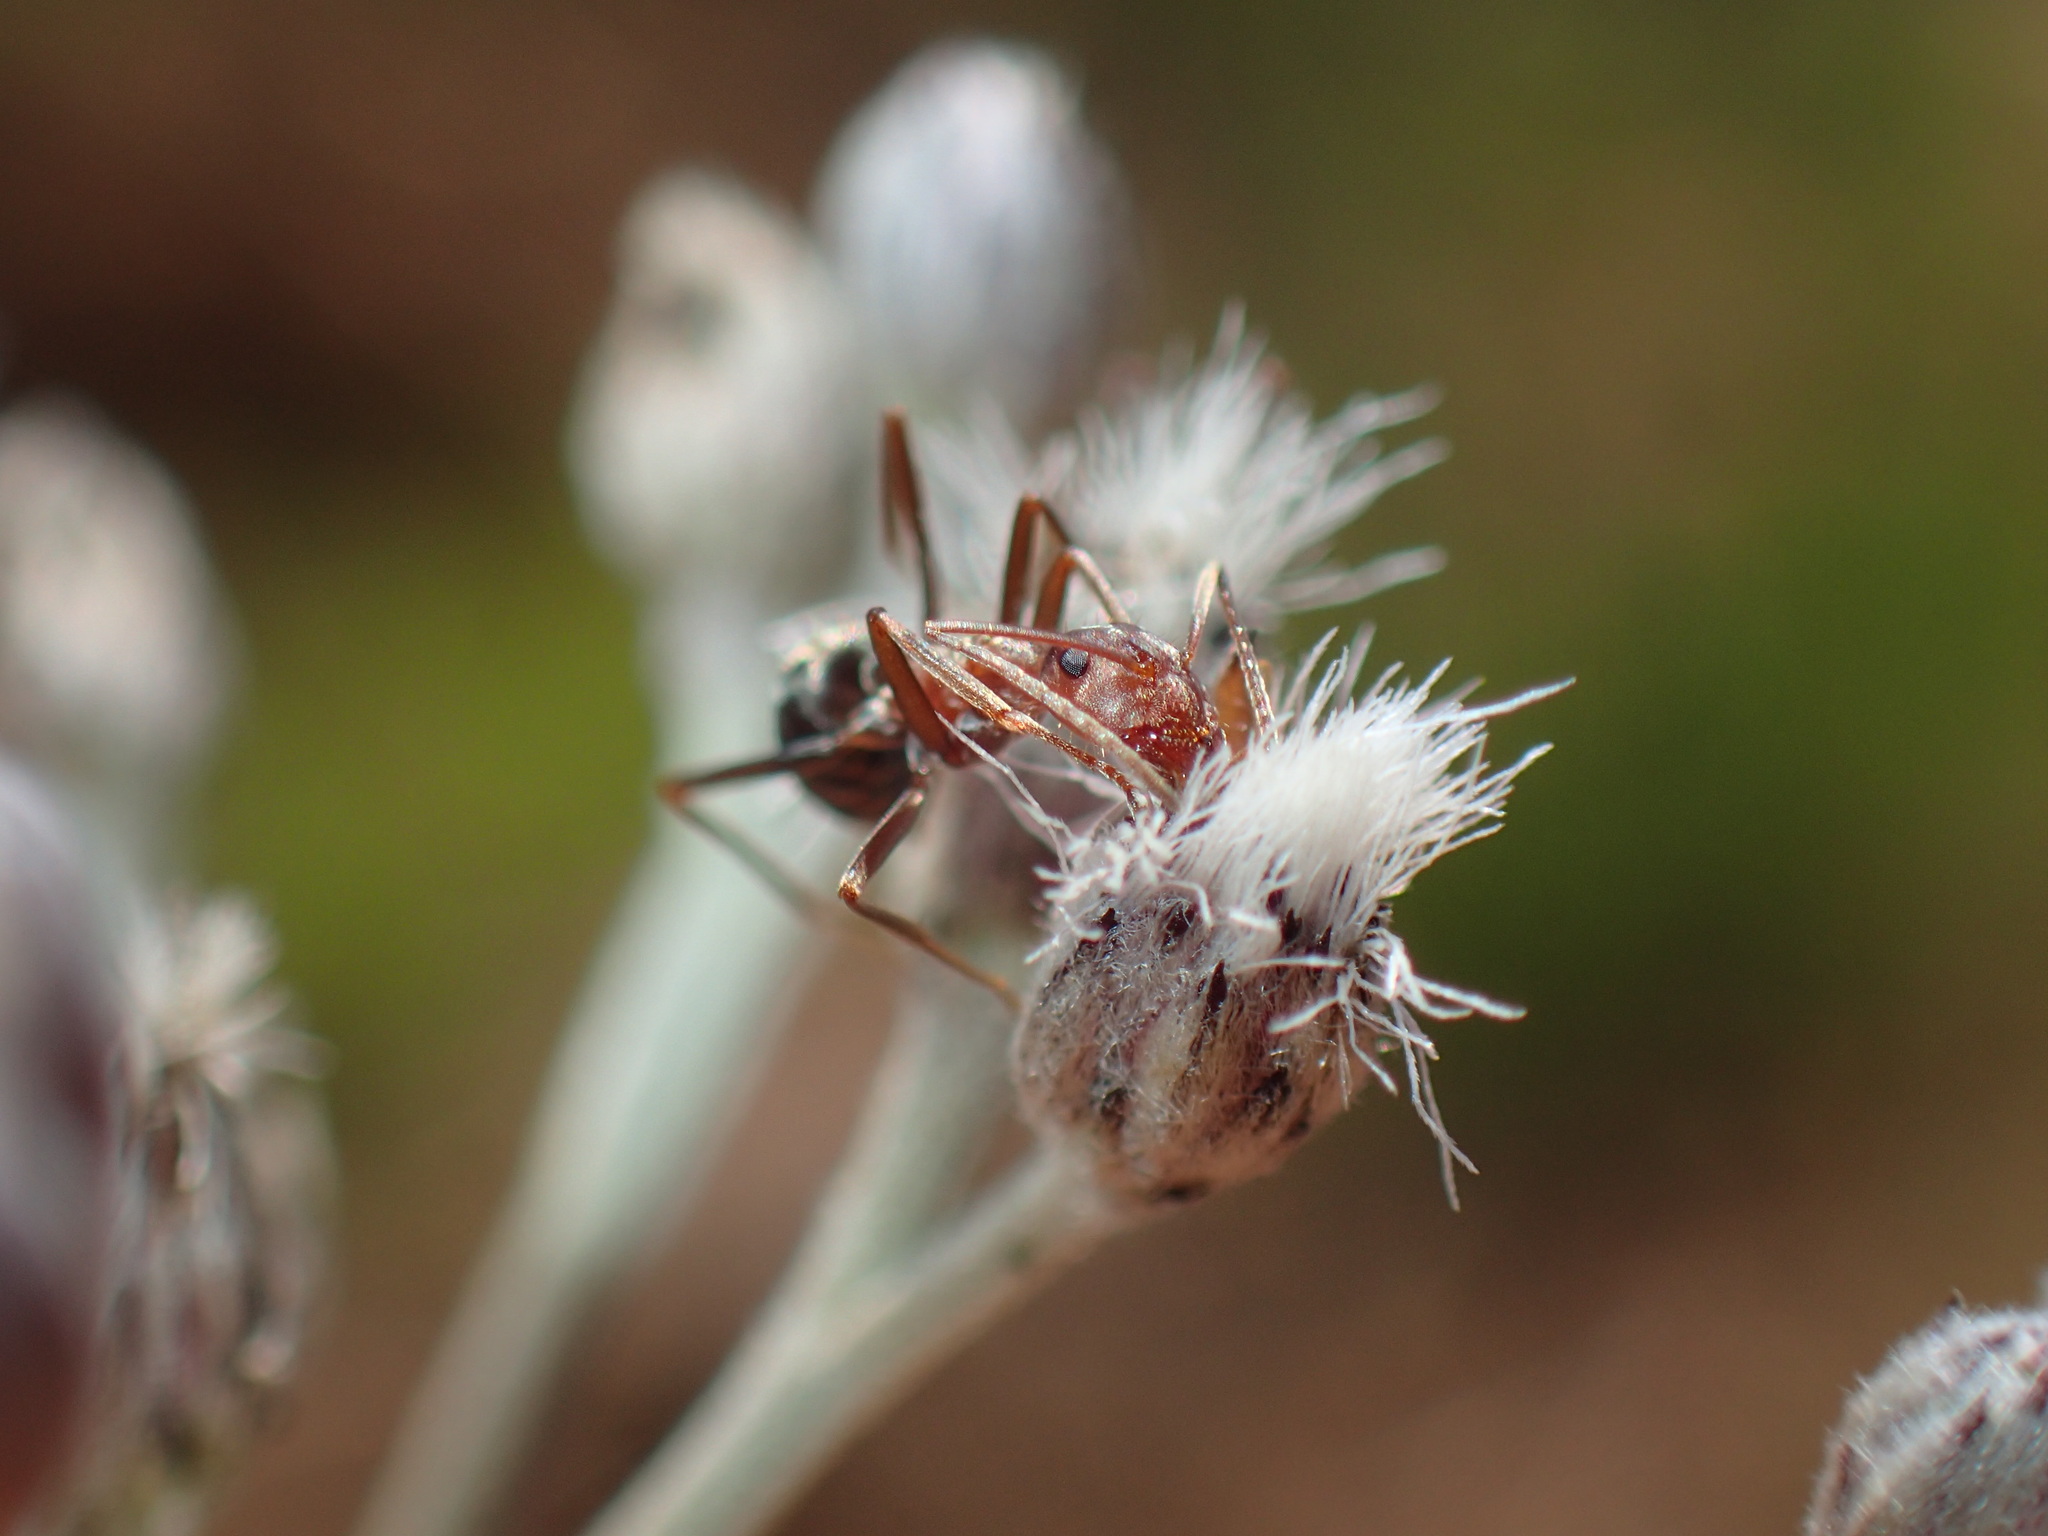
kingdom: Animalia
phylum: Arthropoda
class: Insecta
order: Hymenoptera
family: Formicidae
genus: Anoplolepis
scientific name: Anoplolepis custodiens
